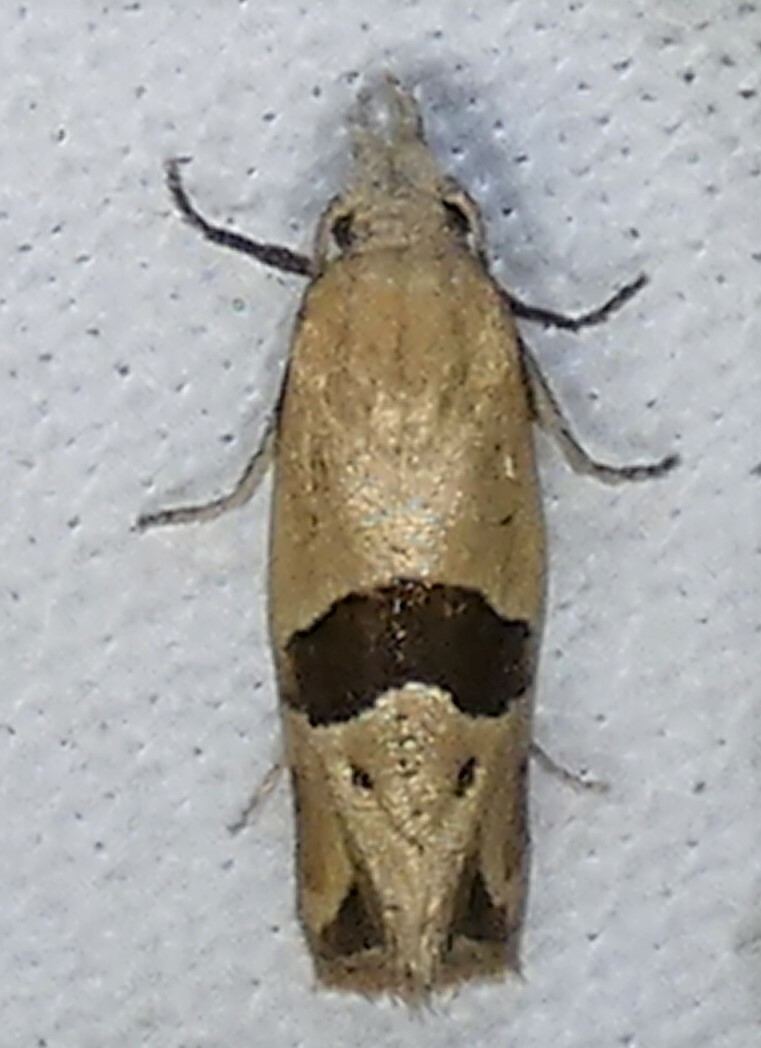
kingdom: Animalia
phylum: Arthropoda
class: Insecta
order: Lepidoptera
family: Tortricidae
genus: Eugnosta
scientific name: Eugnosta sartana
